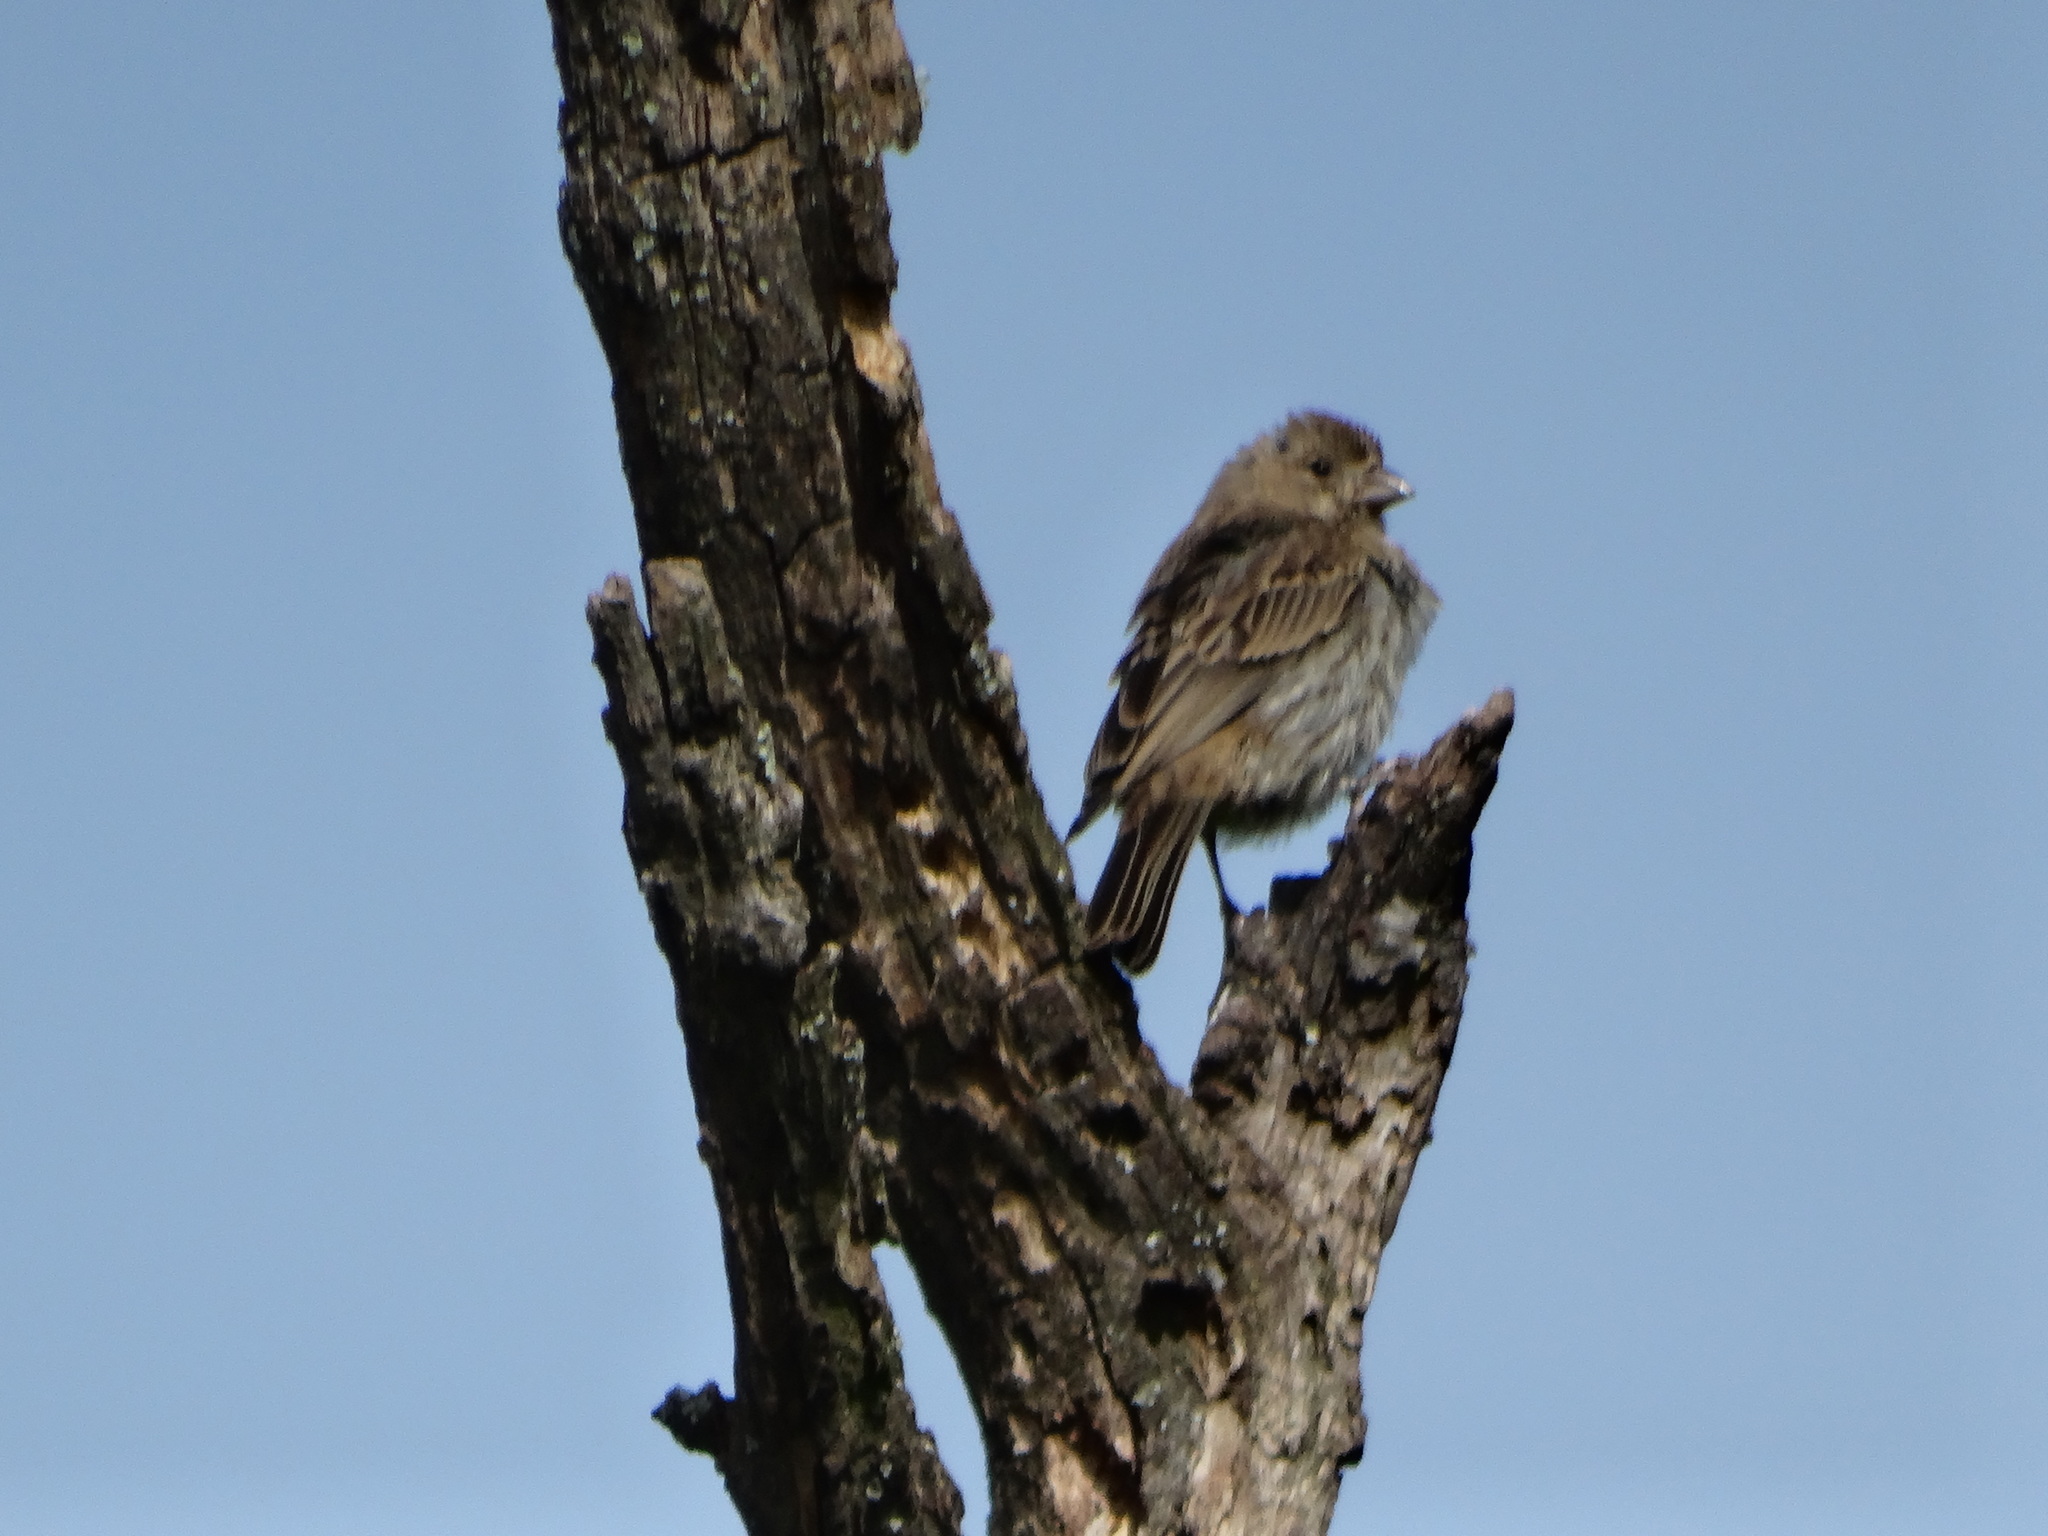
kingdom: Animalia
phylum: Chordata
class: Aves
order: Passeriformes
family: Fringillidae
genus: Haemorhous
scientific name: Haemorhous mexicanus
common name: House finch
